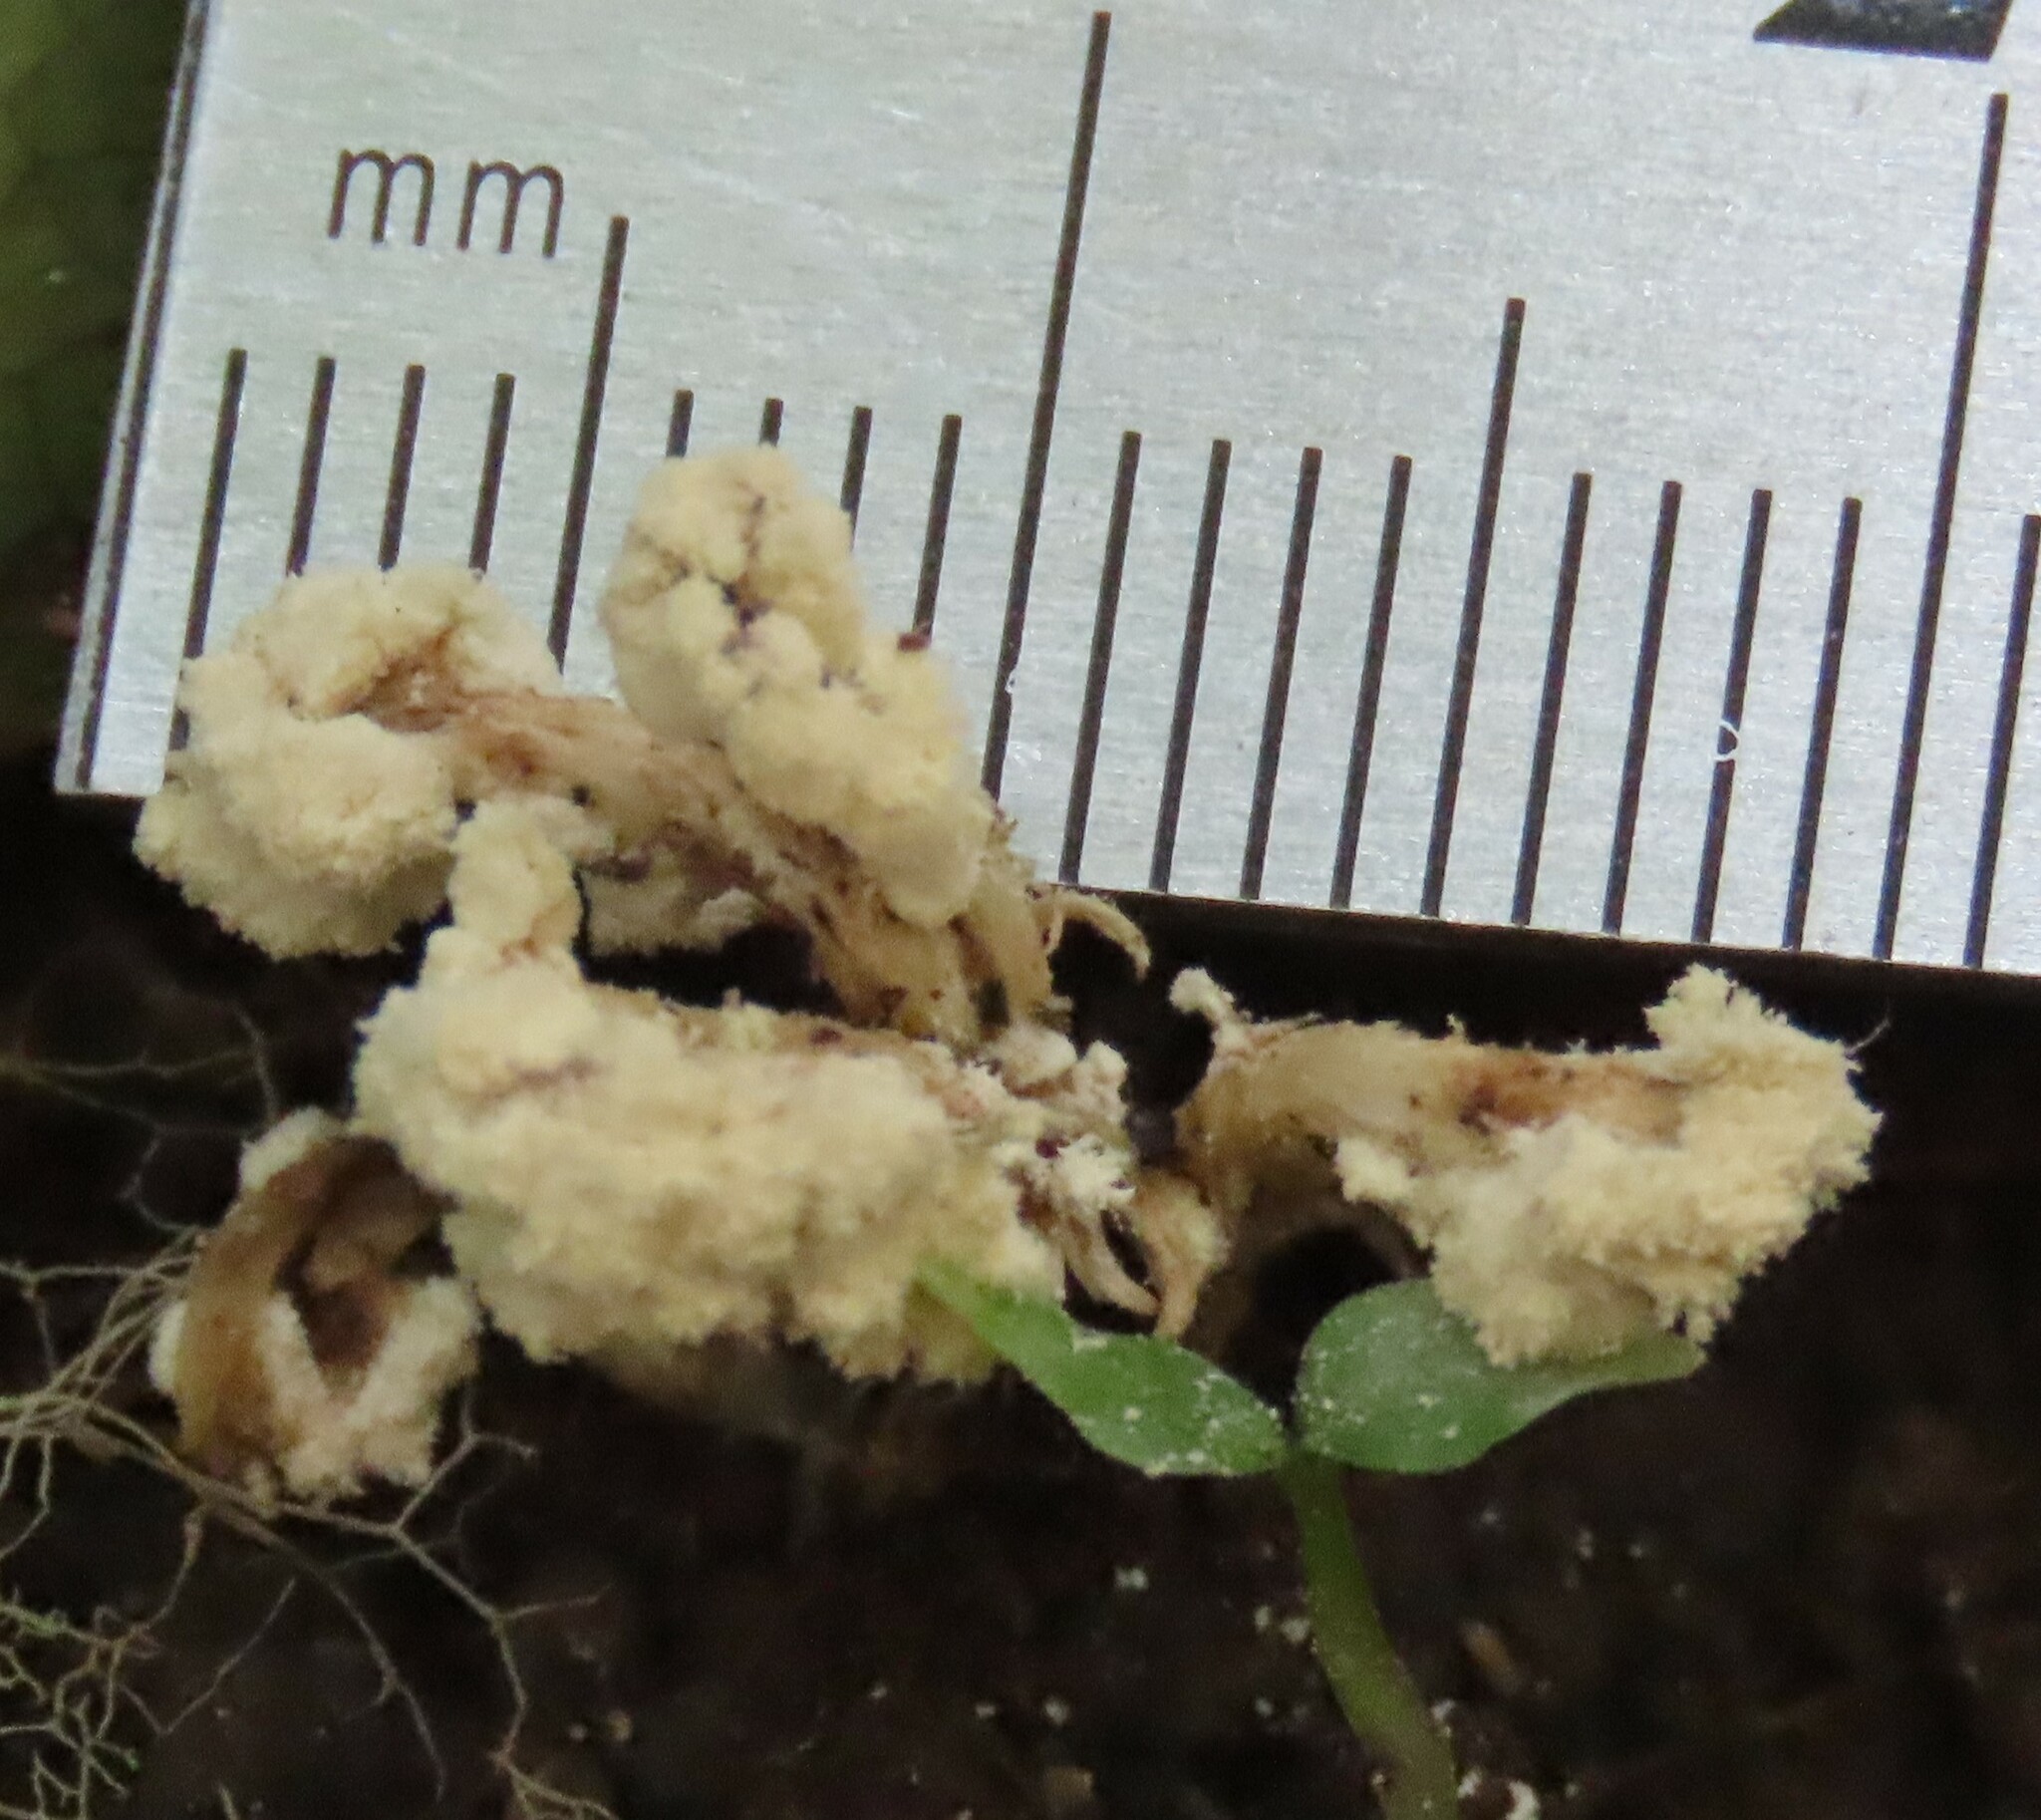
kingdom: Fungi
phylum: Ascomycota
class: Sordariomycetes
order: Hypocreales
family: Cordycipitaceae
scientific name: Cordycipitaceae
